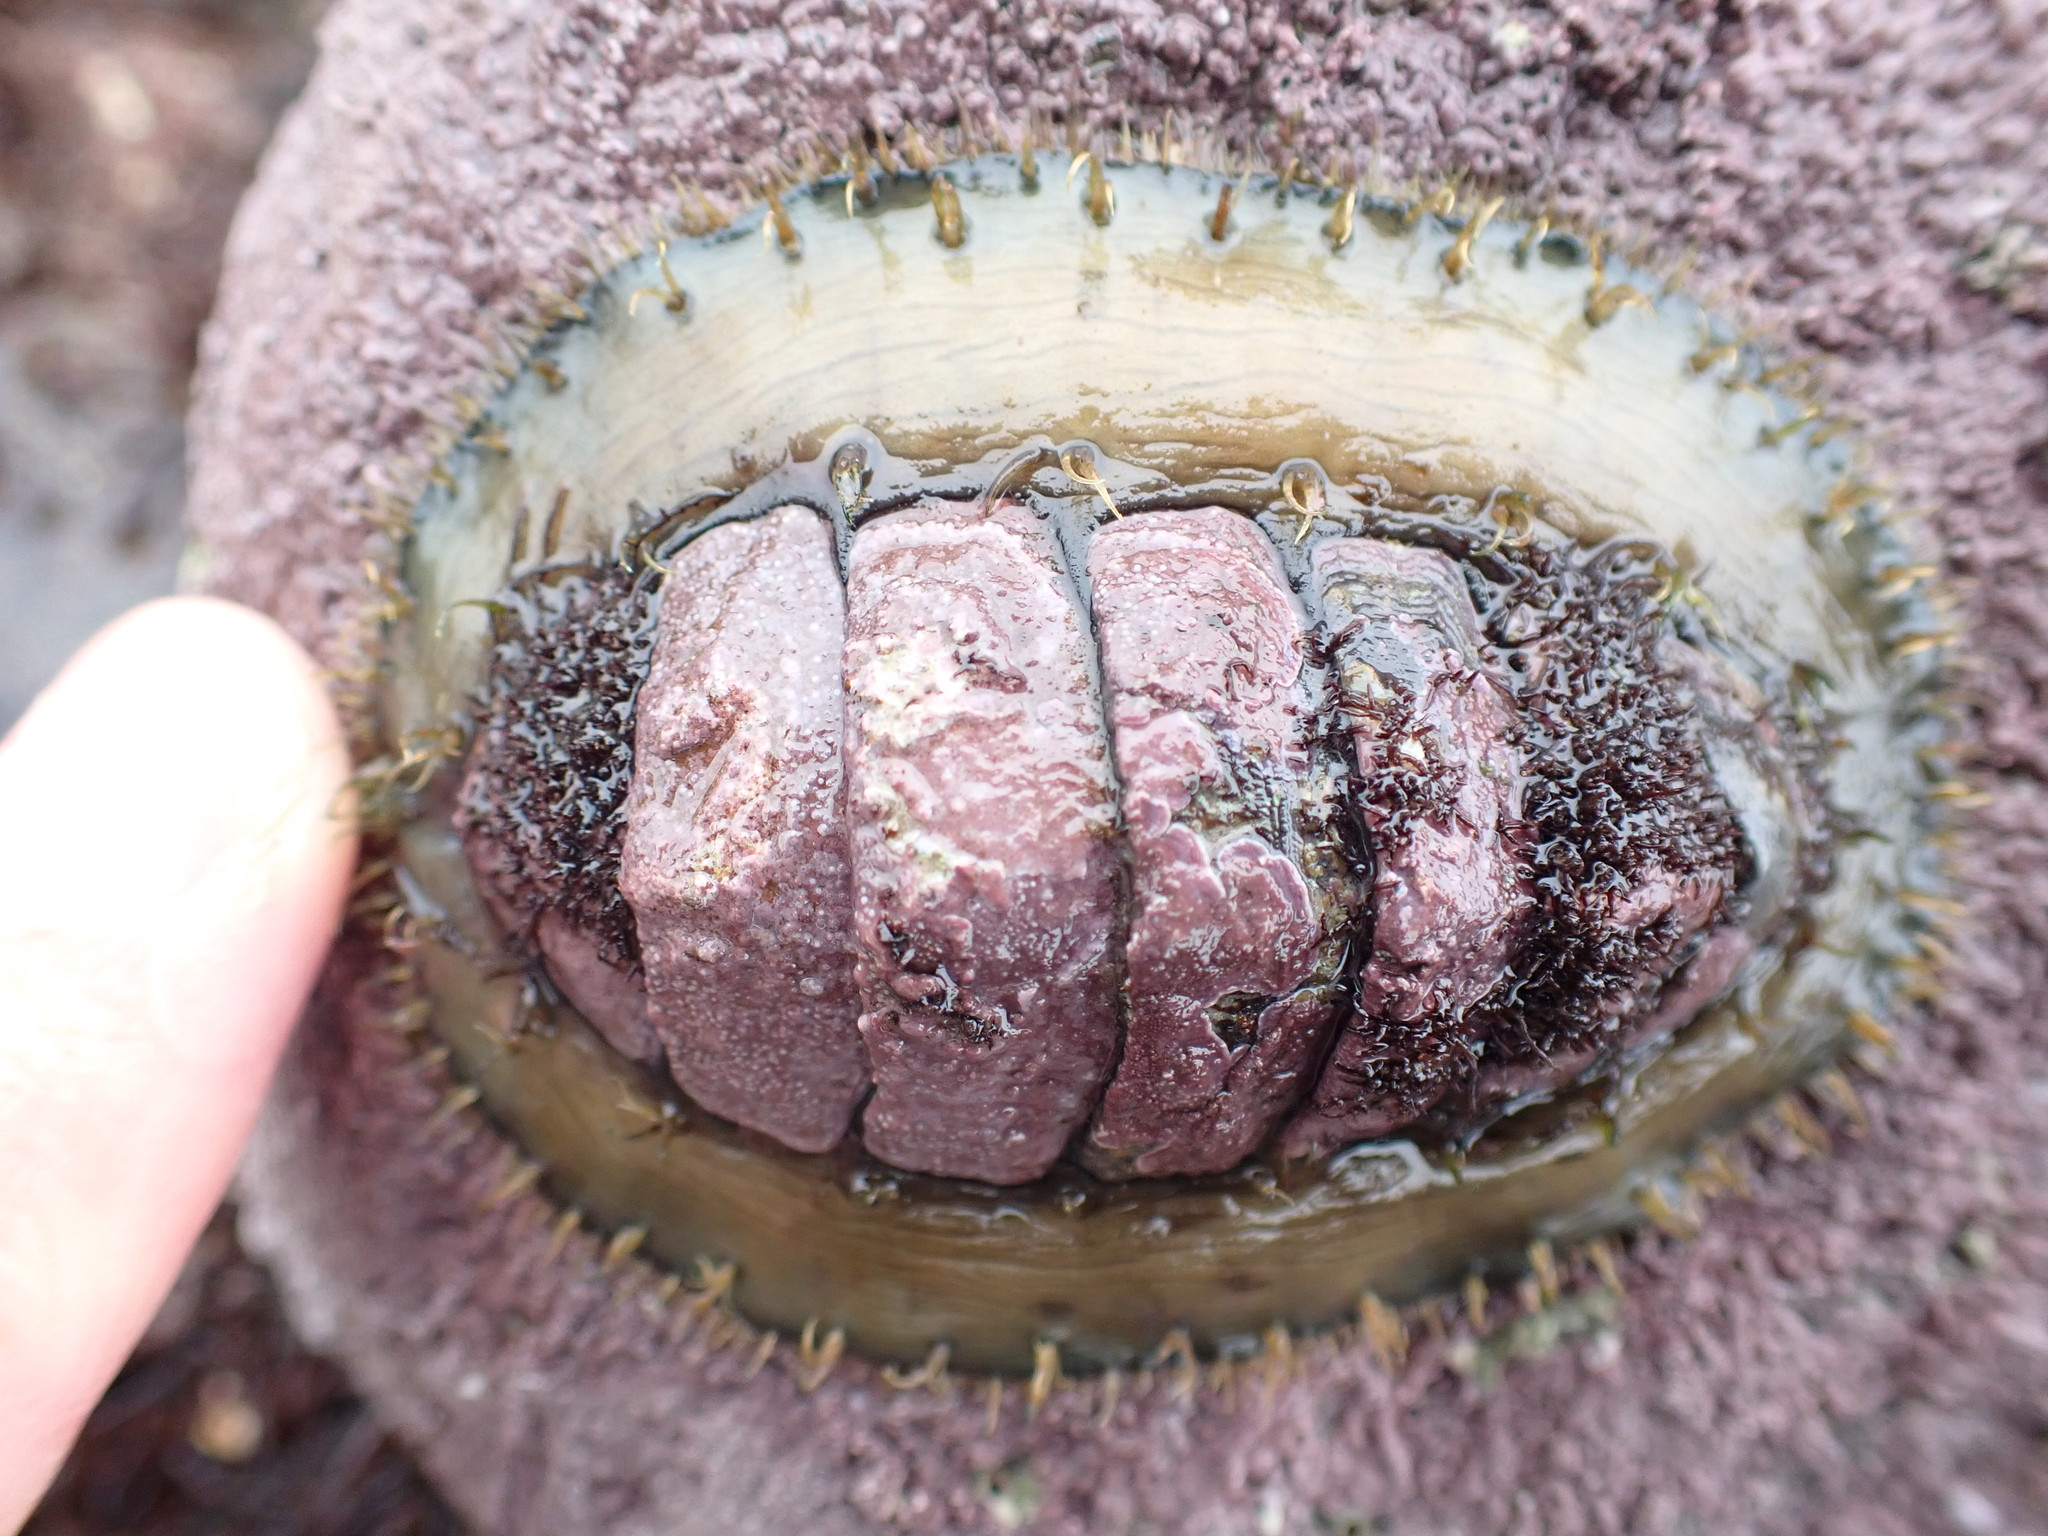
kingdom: Animalia
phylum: Mollusca
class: Polyplacophora
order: Chitonida
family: Mopaliidae
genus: Plaxiphora
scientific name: Plaxiphora biramosa
